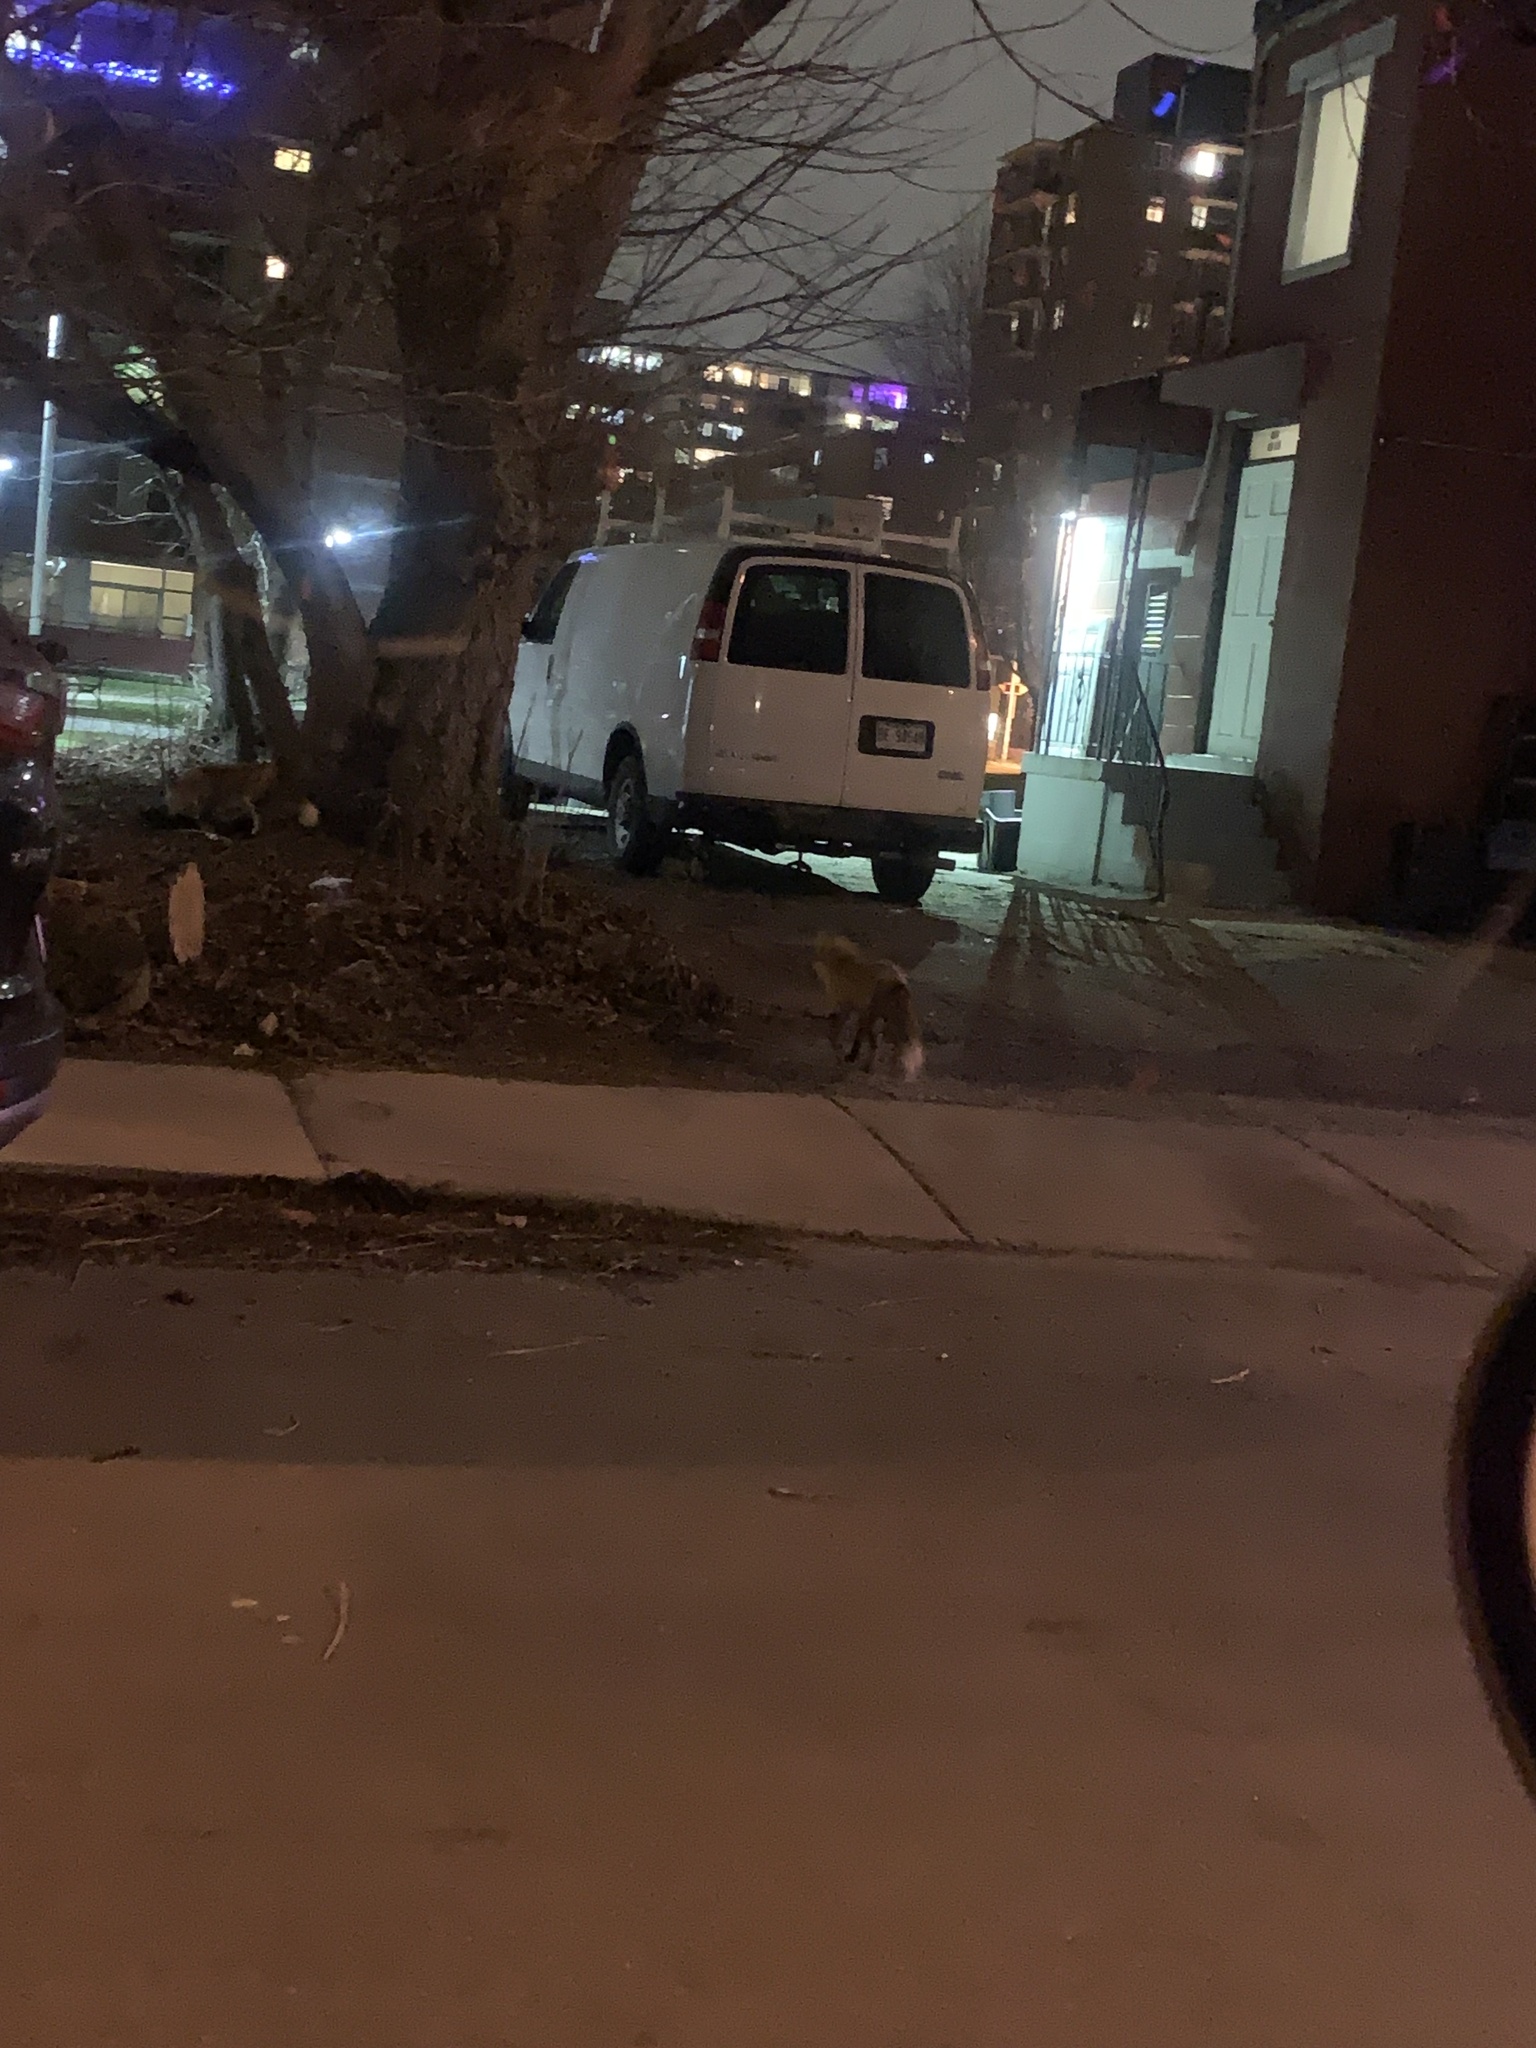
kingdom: Animalia
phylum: Chordata
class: Mammalia
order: Carnivora
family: Canidae
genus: Vulpes
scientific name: Vulpes vulpes
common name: Red fox
